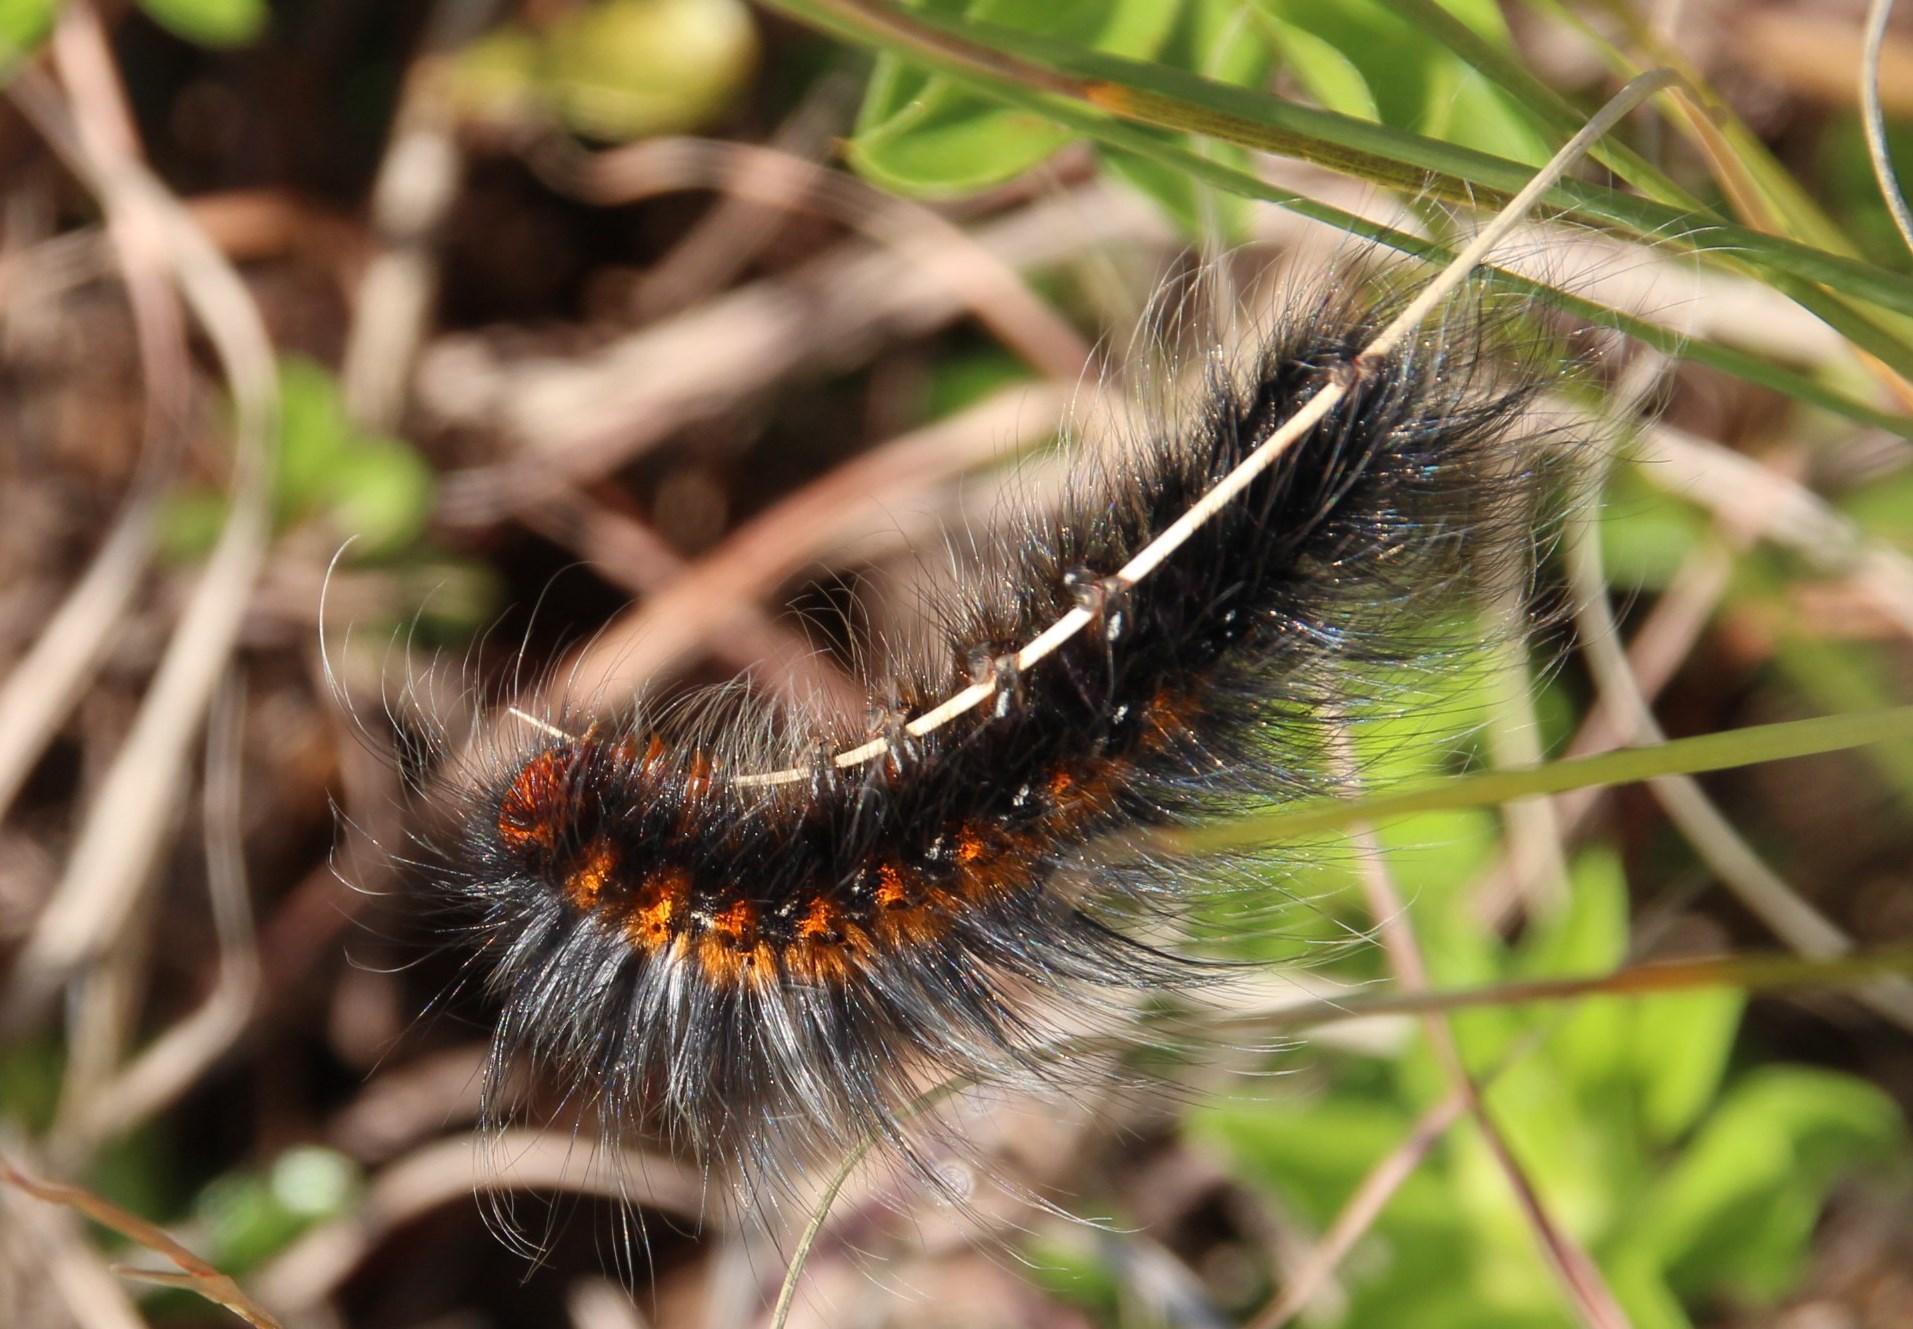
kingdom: Animalia
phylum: Arthropoda
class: Insecta
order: Lepidoptera
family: Lasiocampidae
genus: Mesocelis
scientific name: Mesocelis monticola
